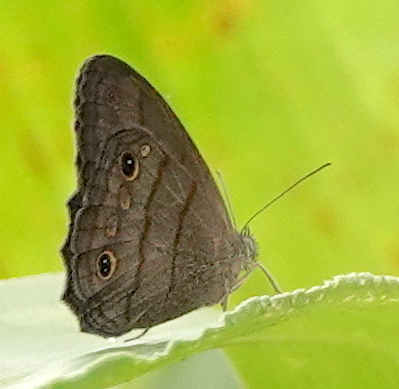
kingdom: Animalia
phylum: Arthropoda
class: Insecta
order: Lepidoptera
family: Nymphalidae
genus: Malaveria
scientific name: Malaveria rodriguezi
